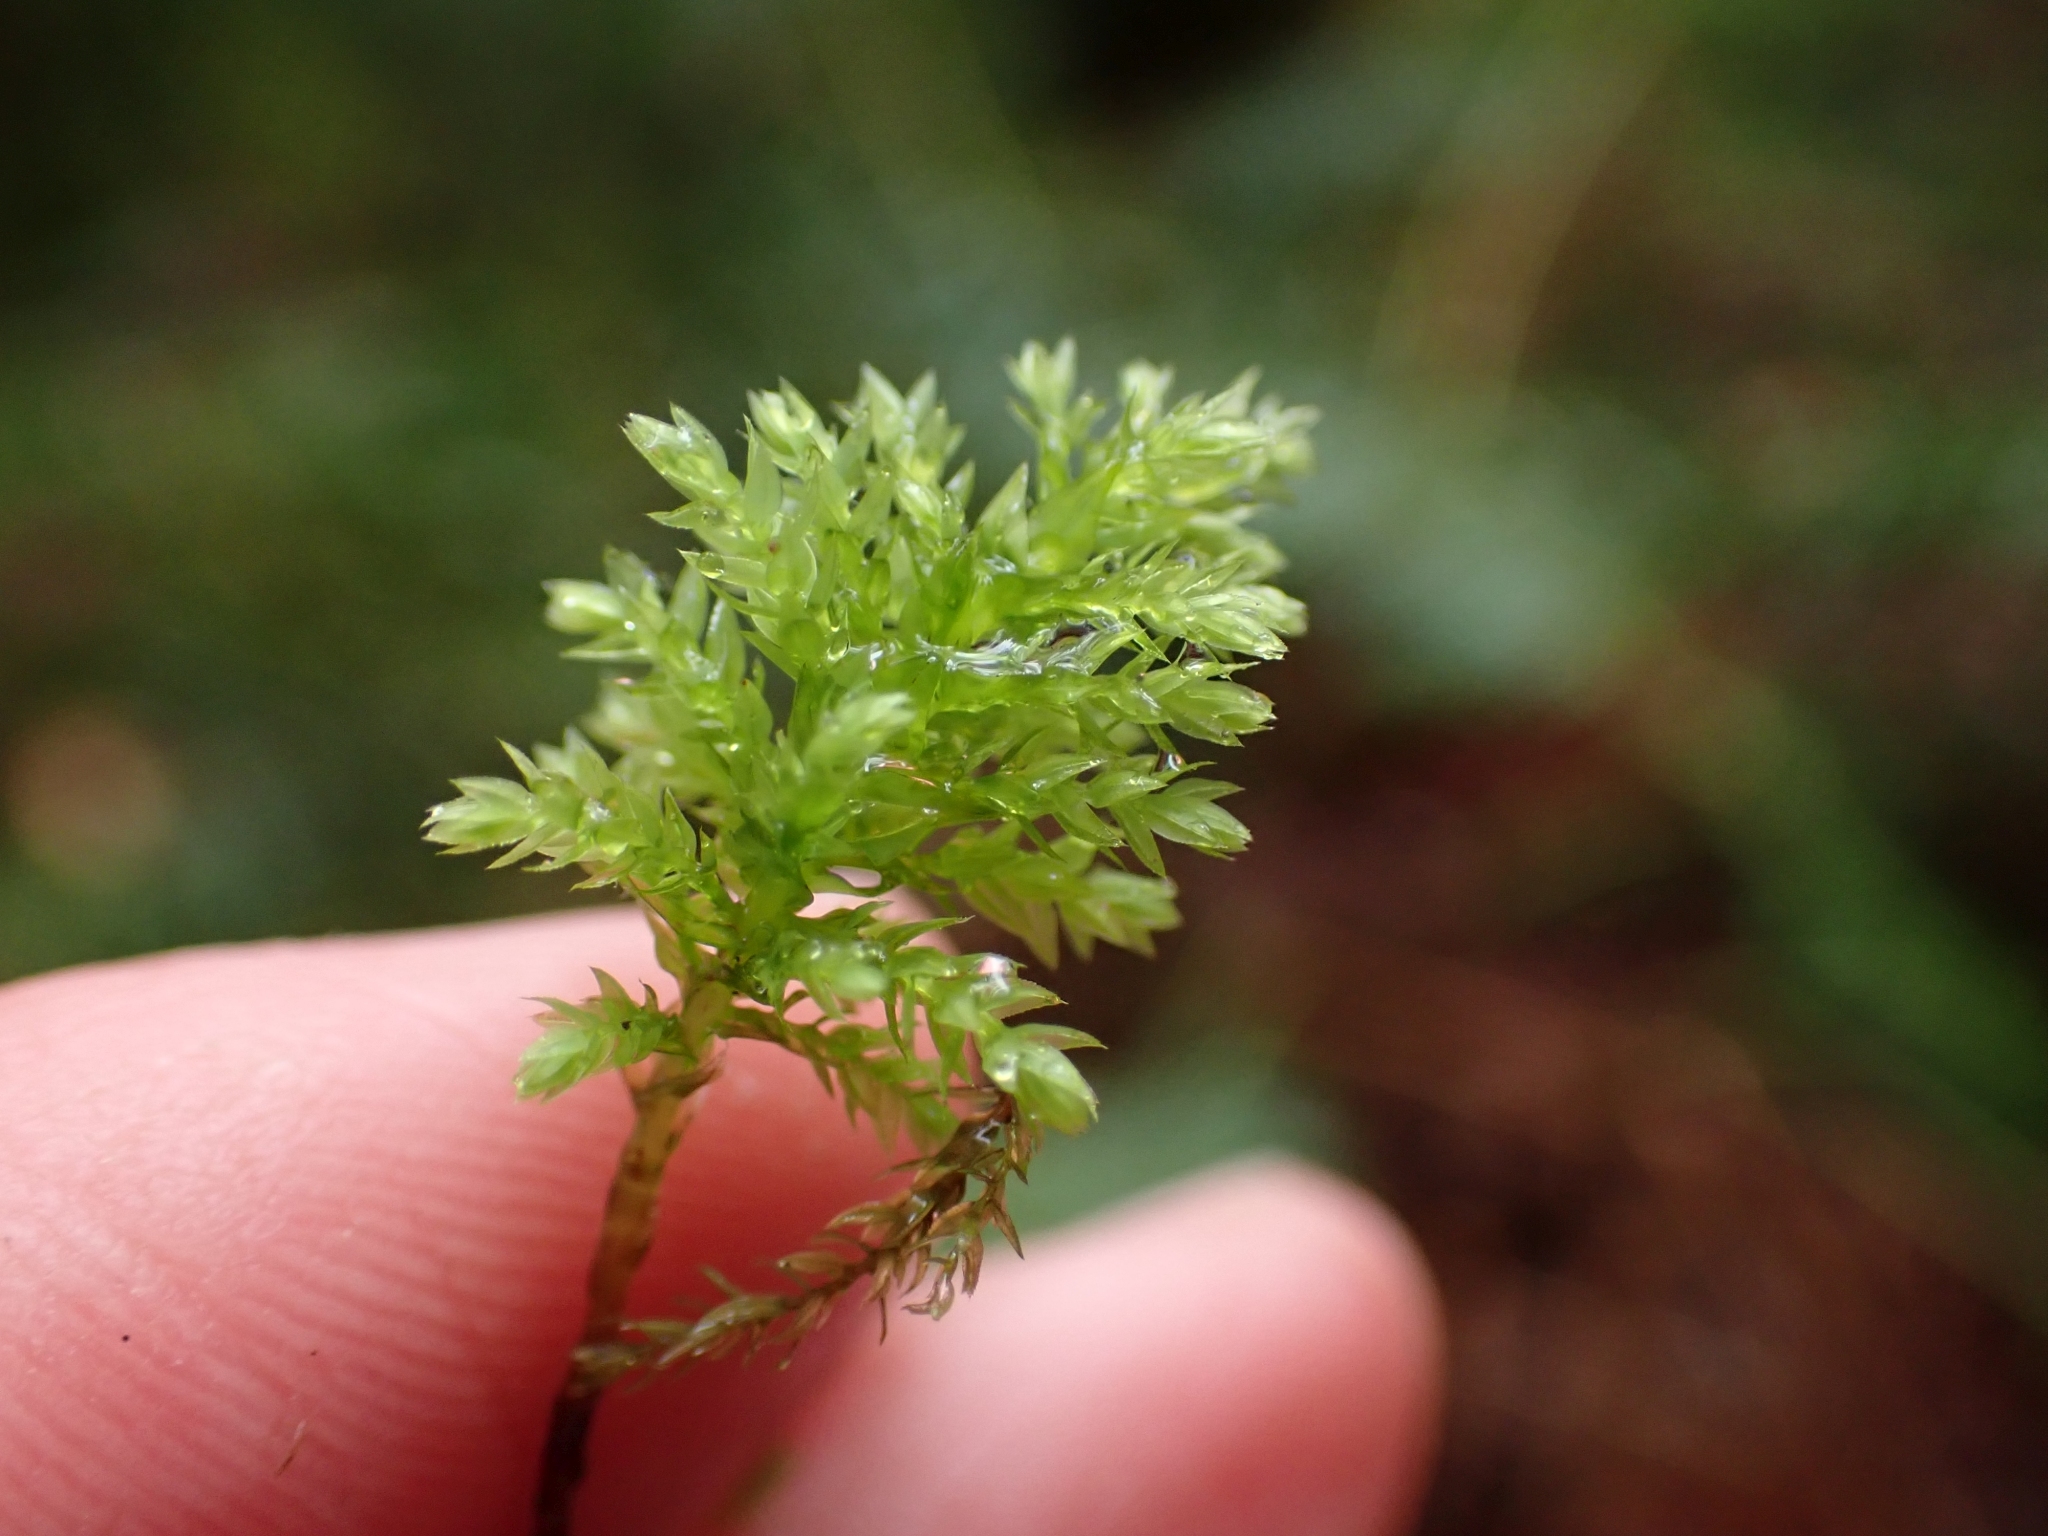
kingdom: Plantae
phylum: Bryophyta
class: Bryopsida
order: Bryales
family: Mniaceae
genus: Leucolepis
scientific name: Leucolepis acanthoneura
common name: Leucolepis umbrella moss
